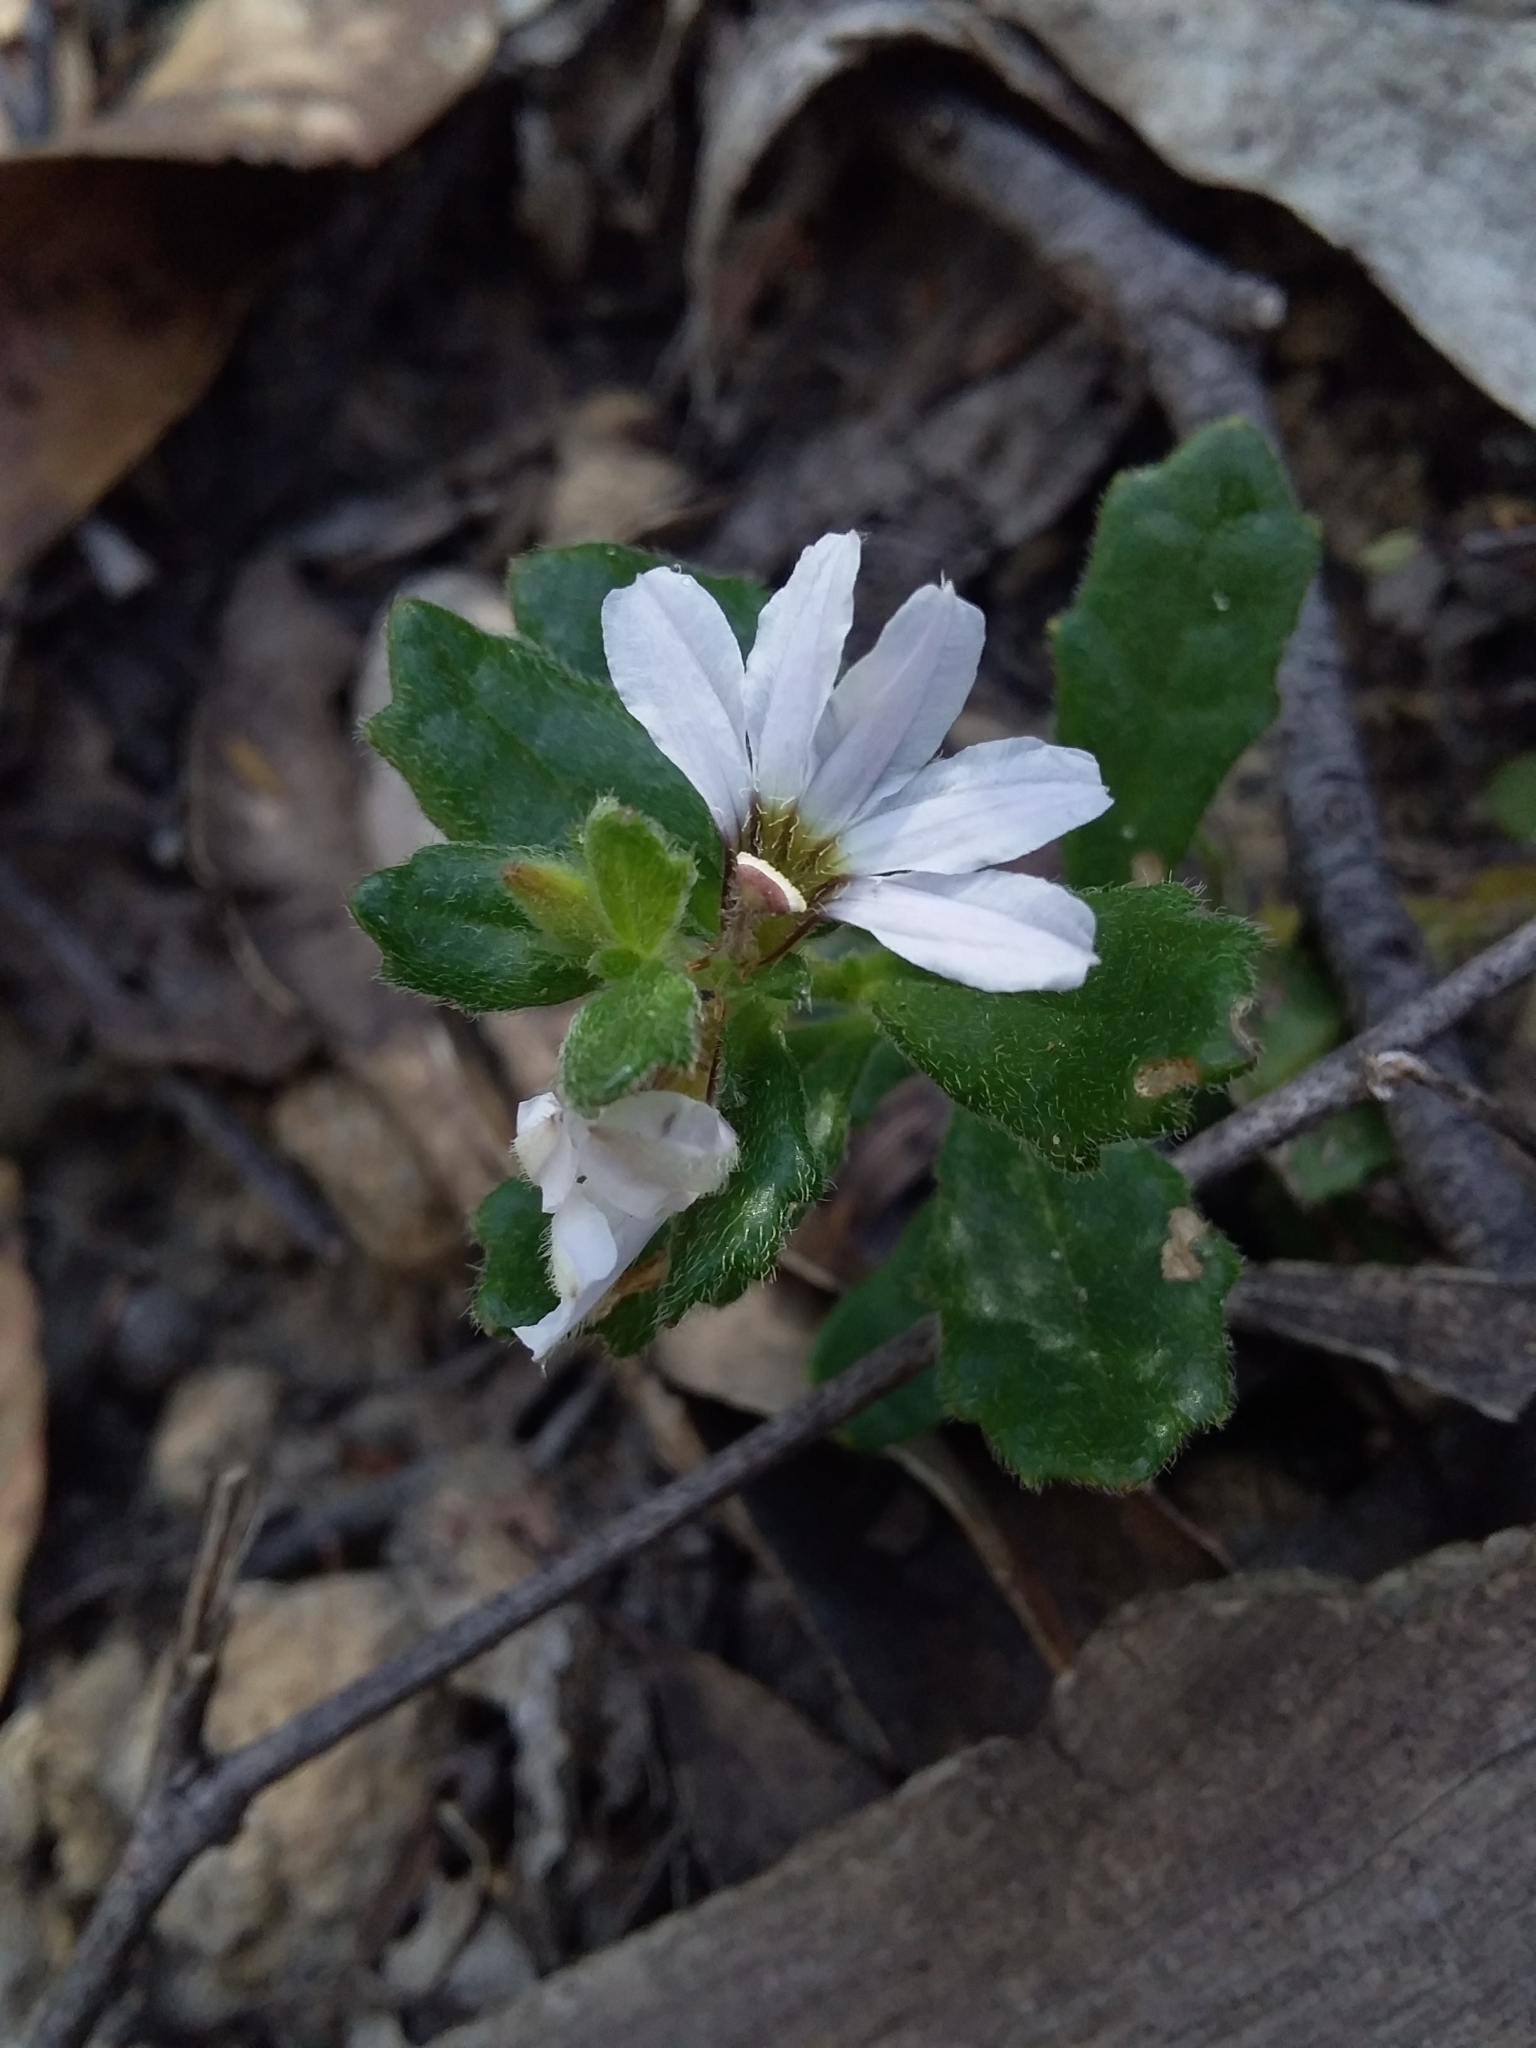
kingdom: Plantae
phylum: Tracheophyta
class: Magnoliopsida
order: Asterales
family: Goodeniaceae
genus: Scaevola
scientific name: Scaevola albida
